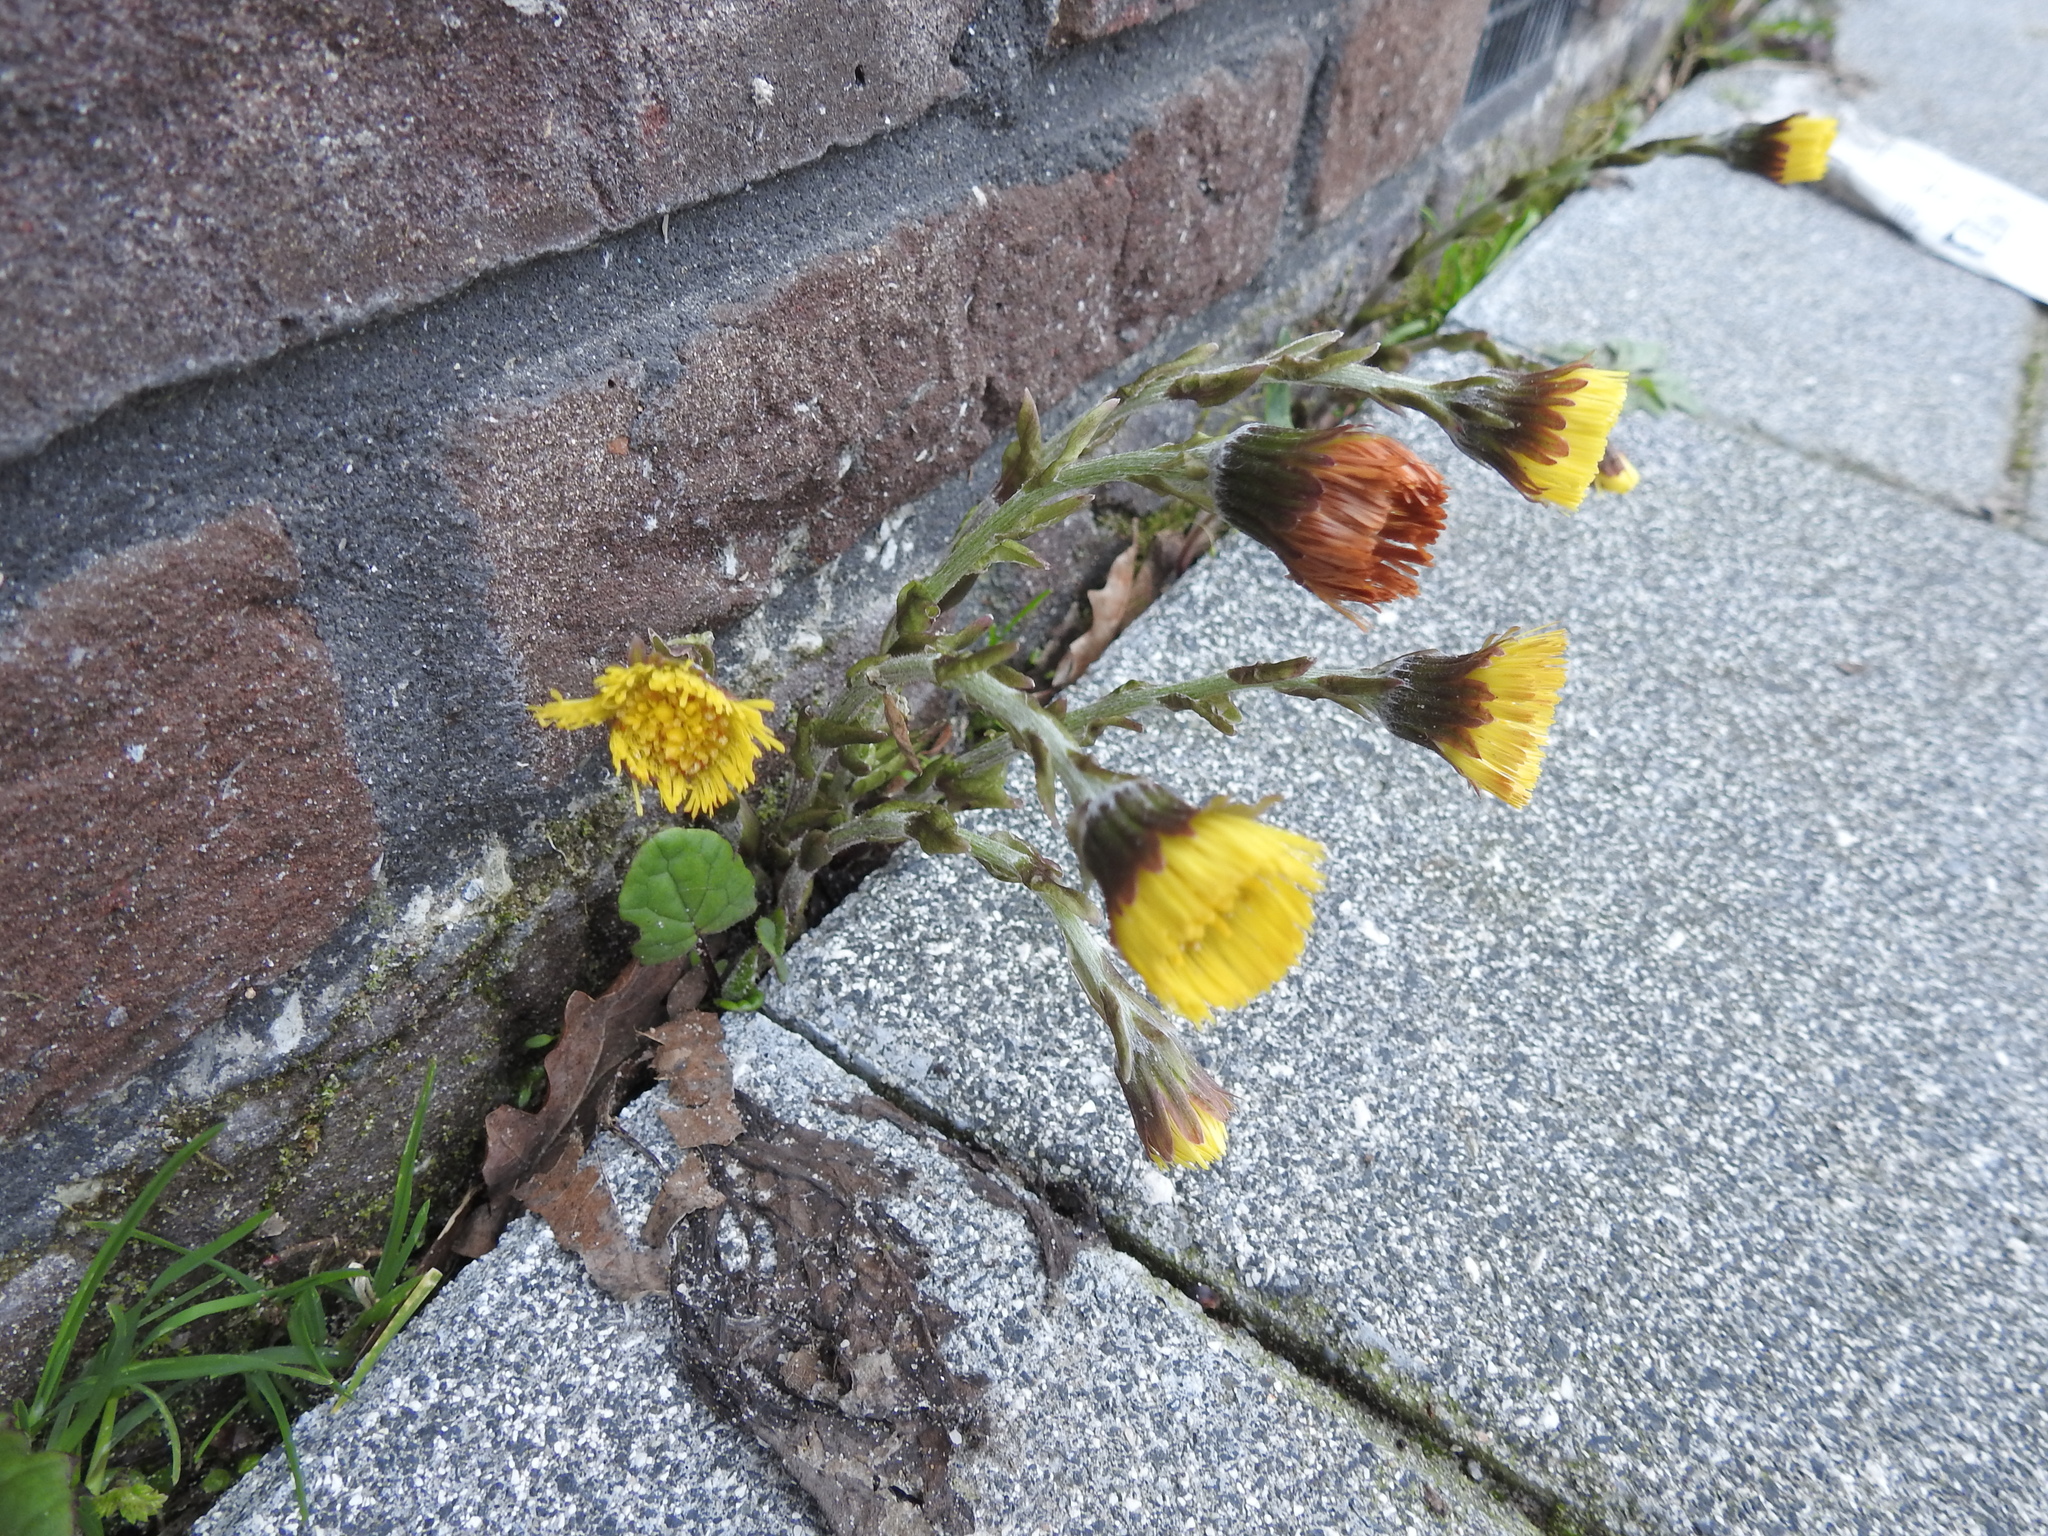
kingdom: Plantae
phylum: Tracheophyta
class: Magnoliopsida
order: Asterales
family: Asteraceae
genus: Tussilago
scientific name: Tussilago farfara
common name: Coltsfoot
